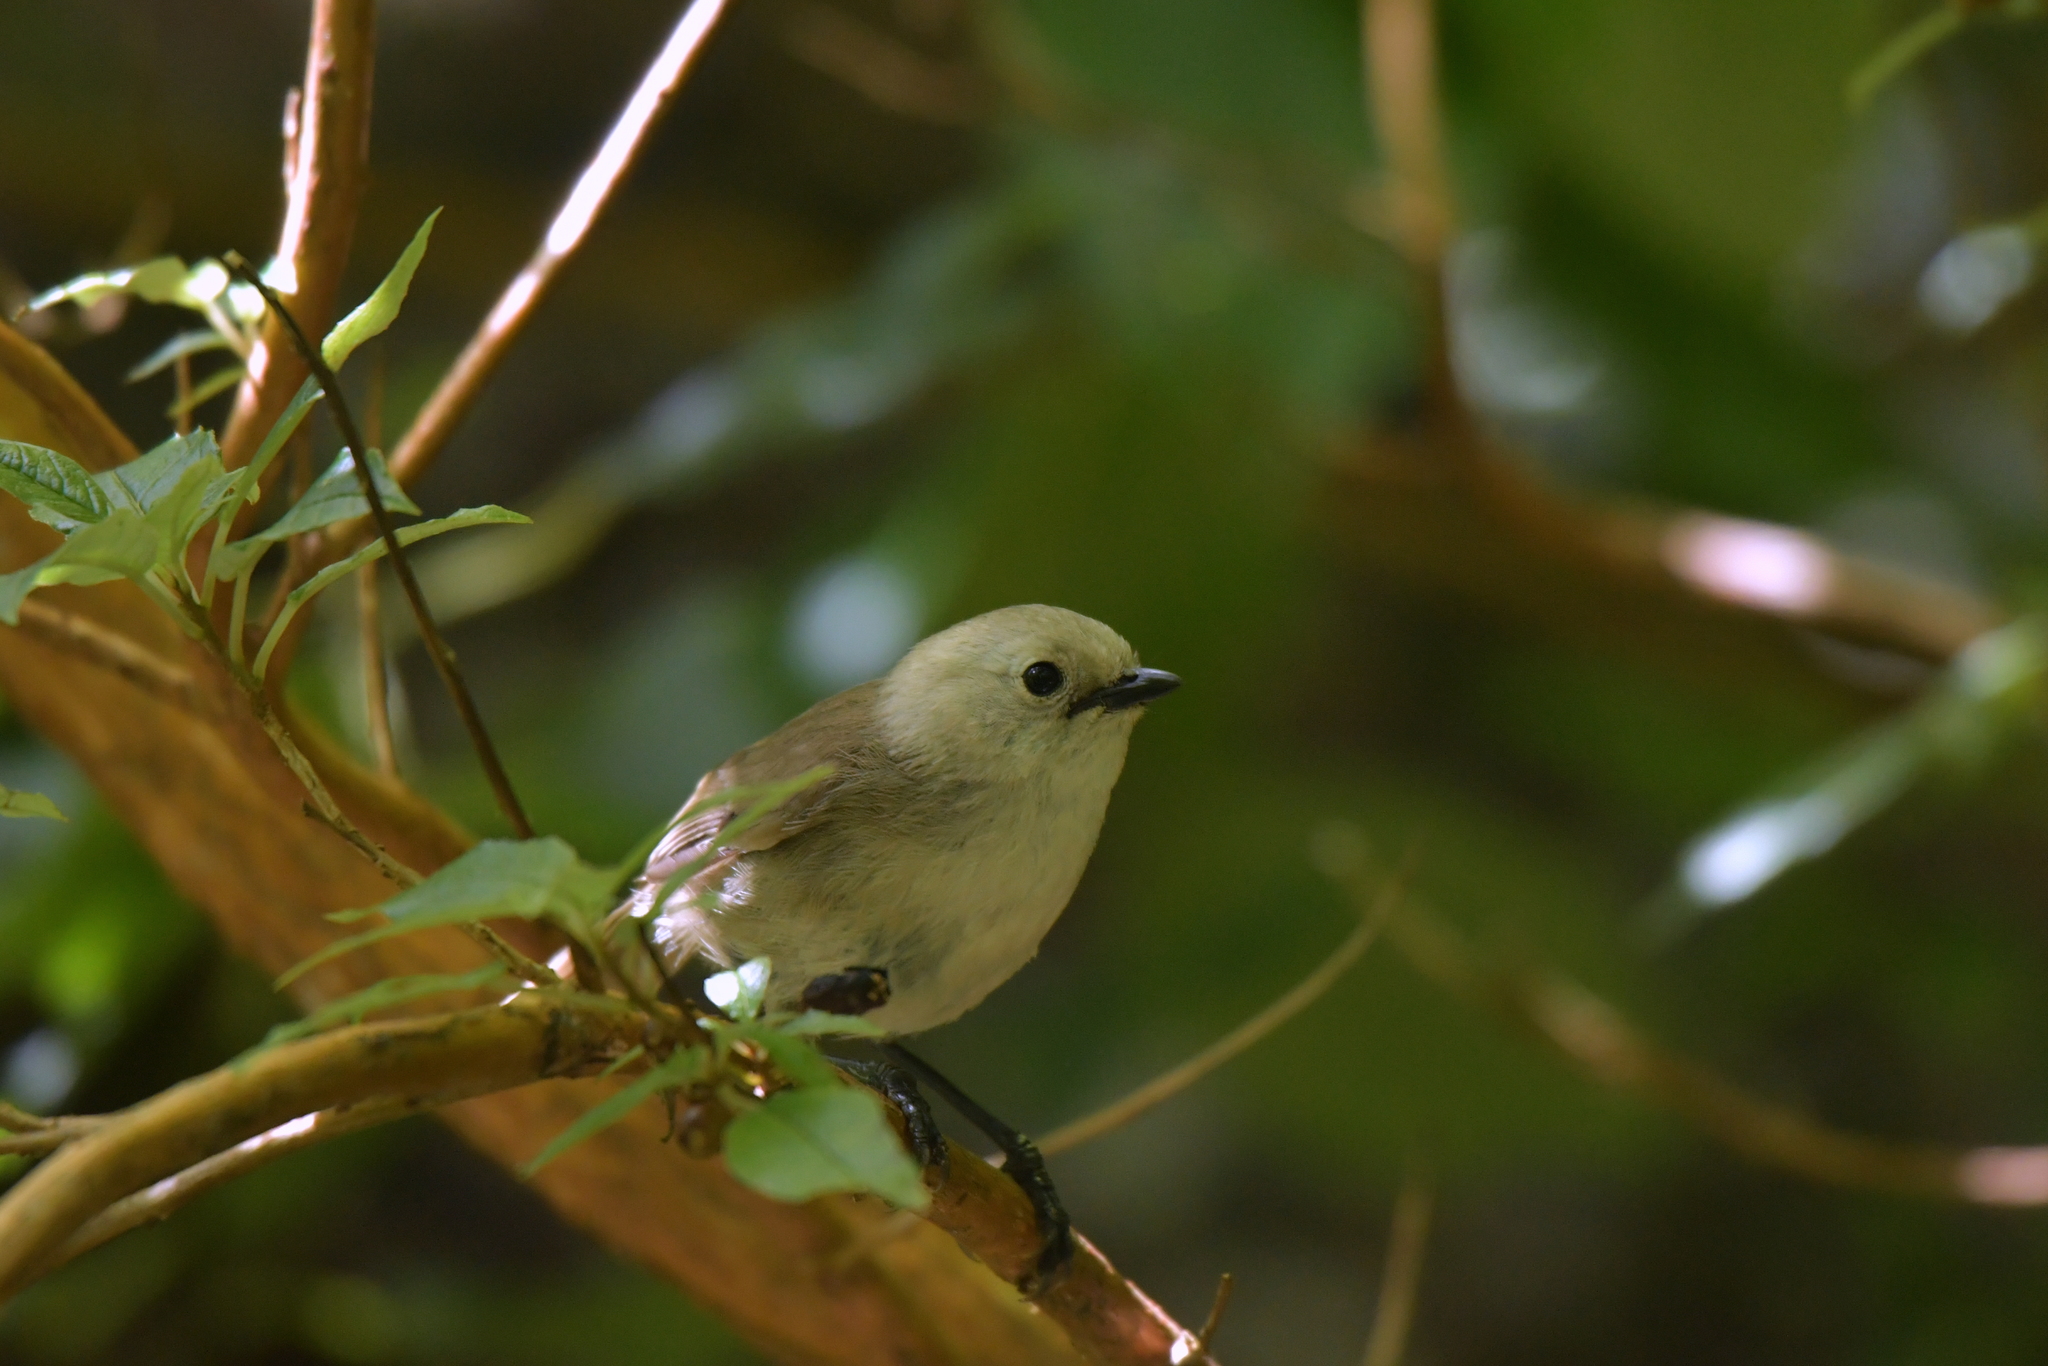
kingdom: Animalia
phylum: Chordata
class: Aves
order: Passeriformes
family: Acanthizidae
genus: Mohoua
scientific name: Mohoua albicilla
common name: Whitehead
